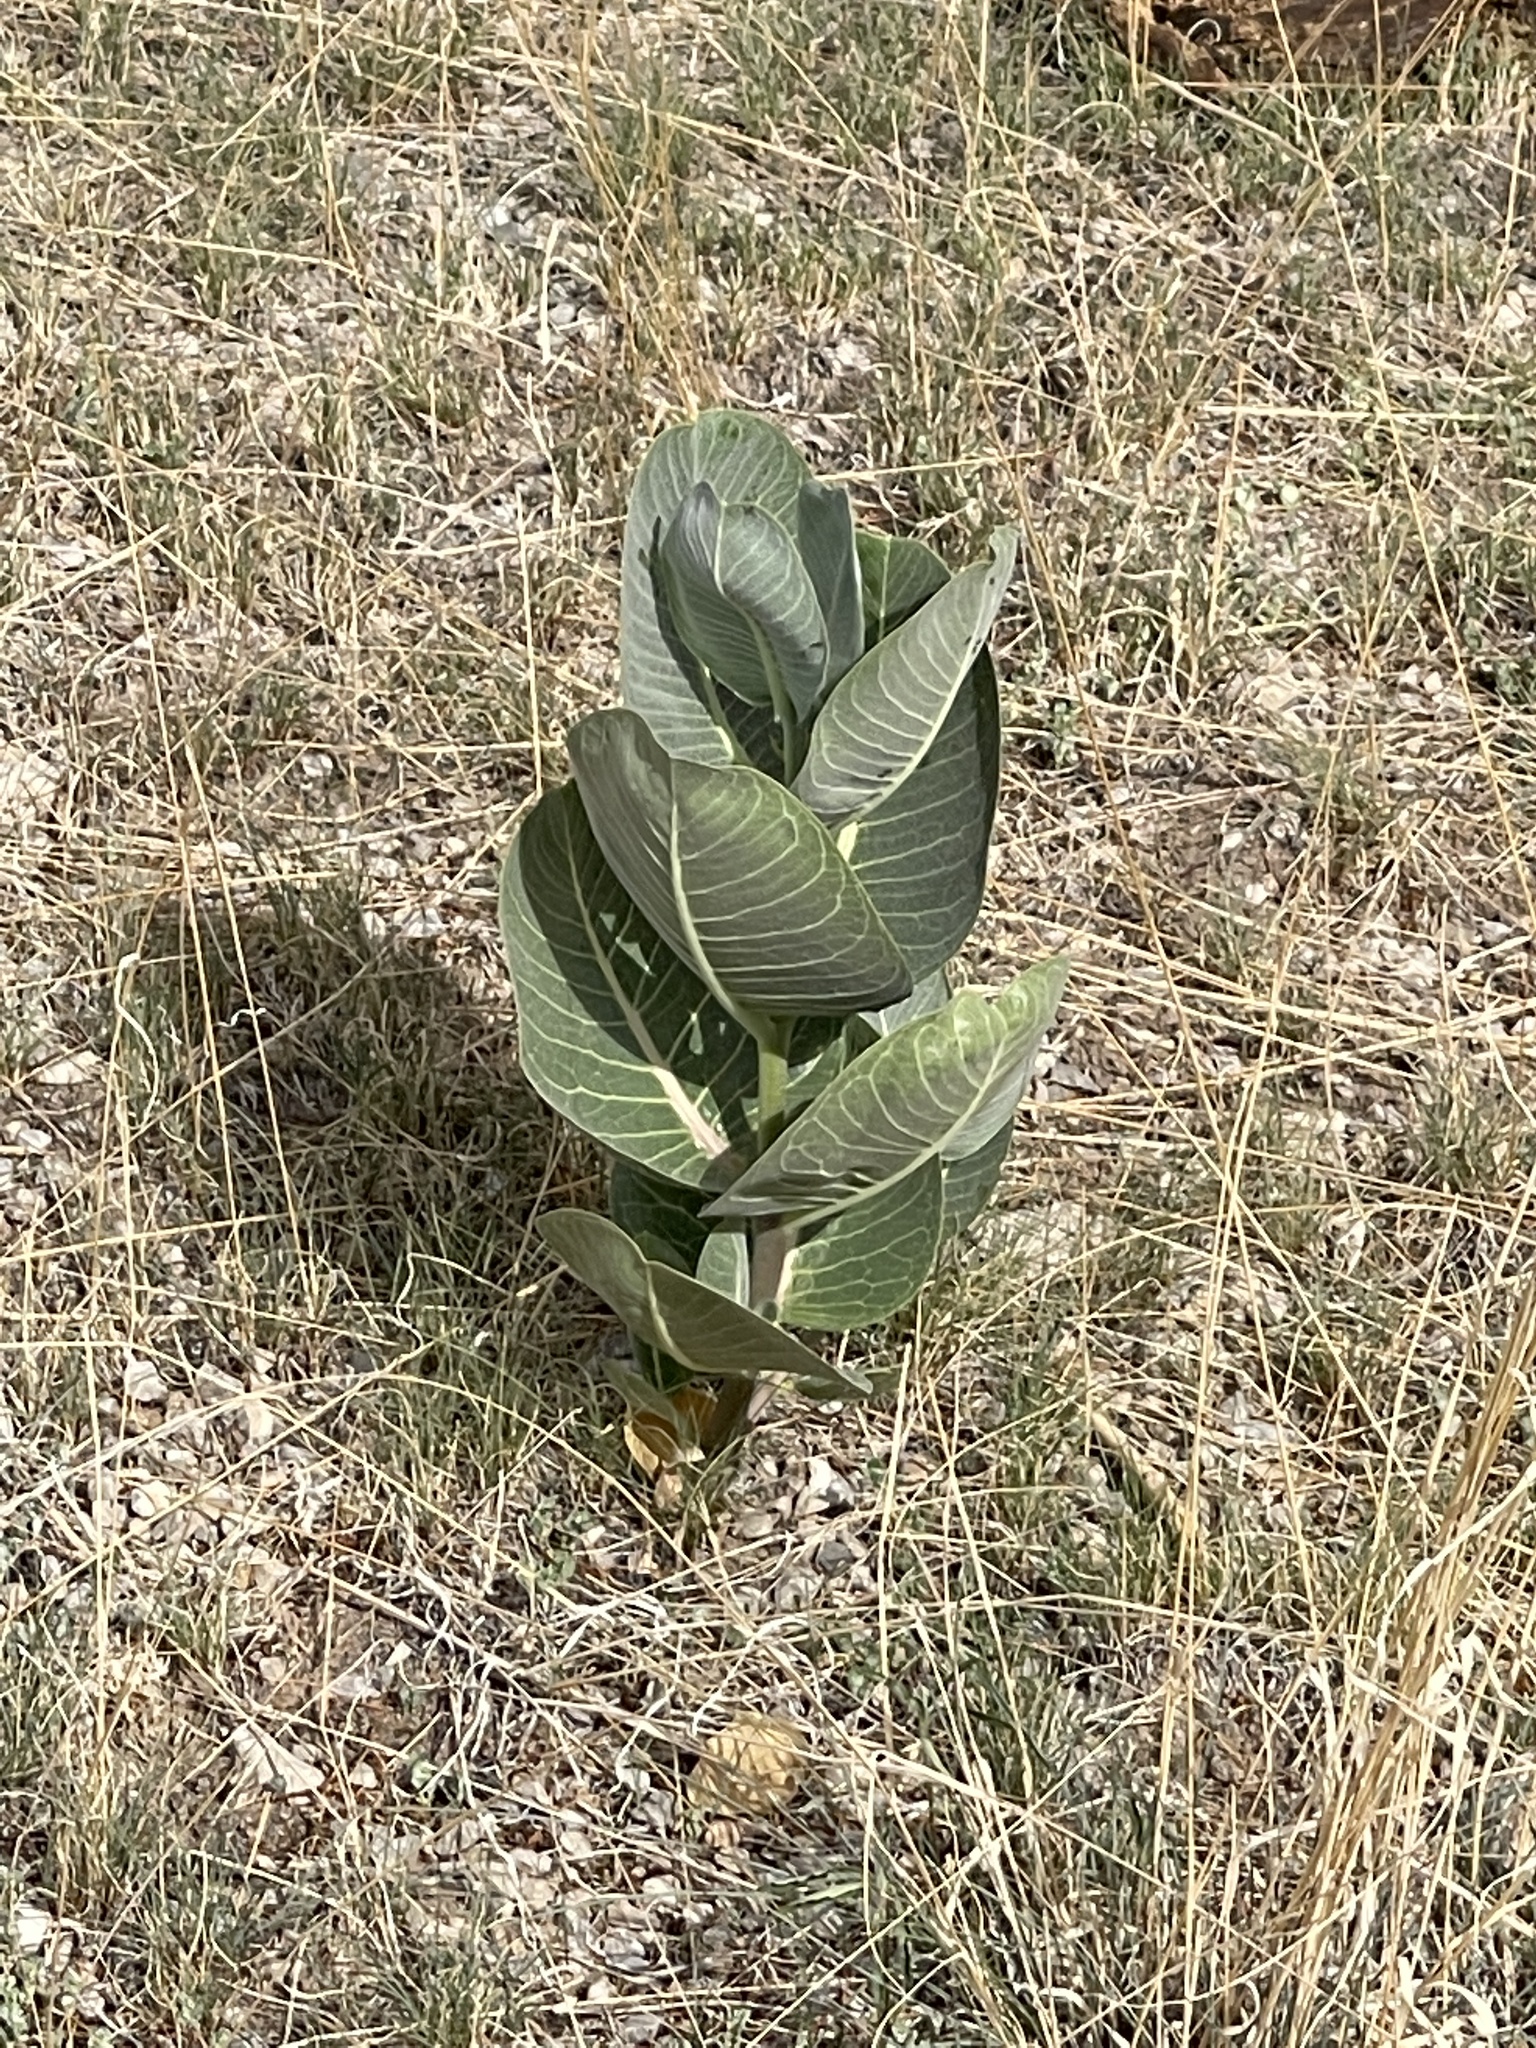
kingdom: Plantae
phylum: Tracheophyta
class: Magnoliopsida
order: Gentianales
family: Apocynaceae
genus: Asclepias
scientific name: Asclepias latifolia
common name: Broadleaf milkweed
